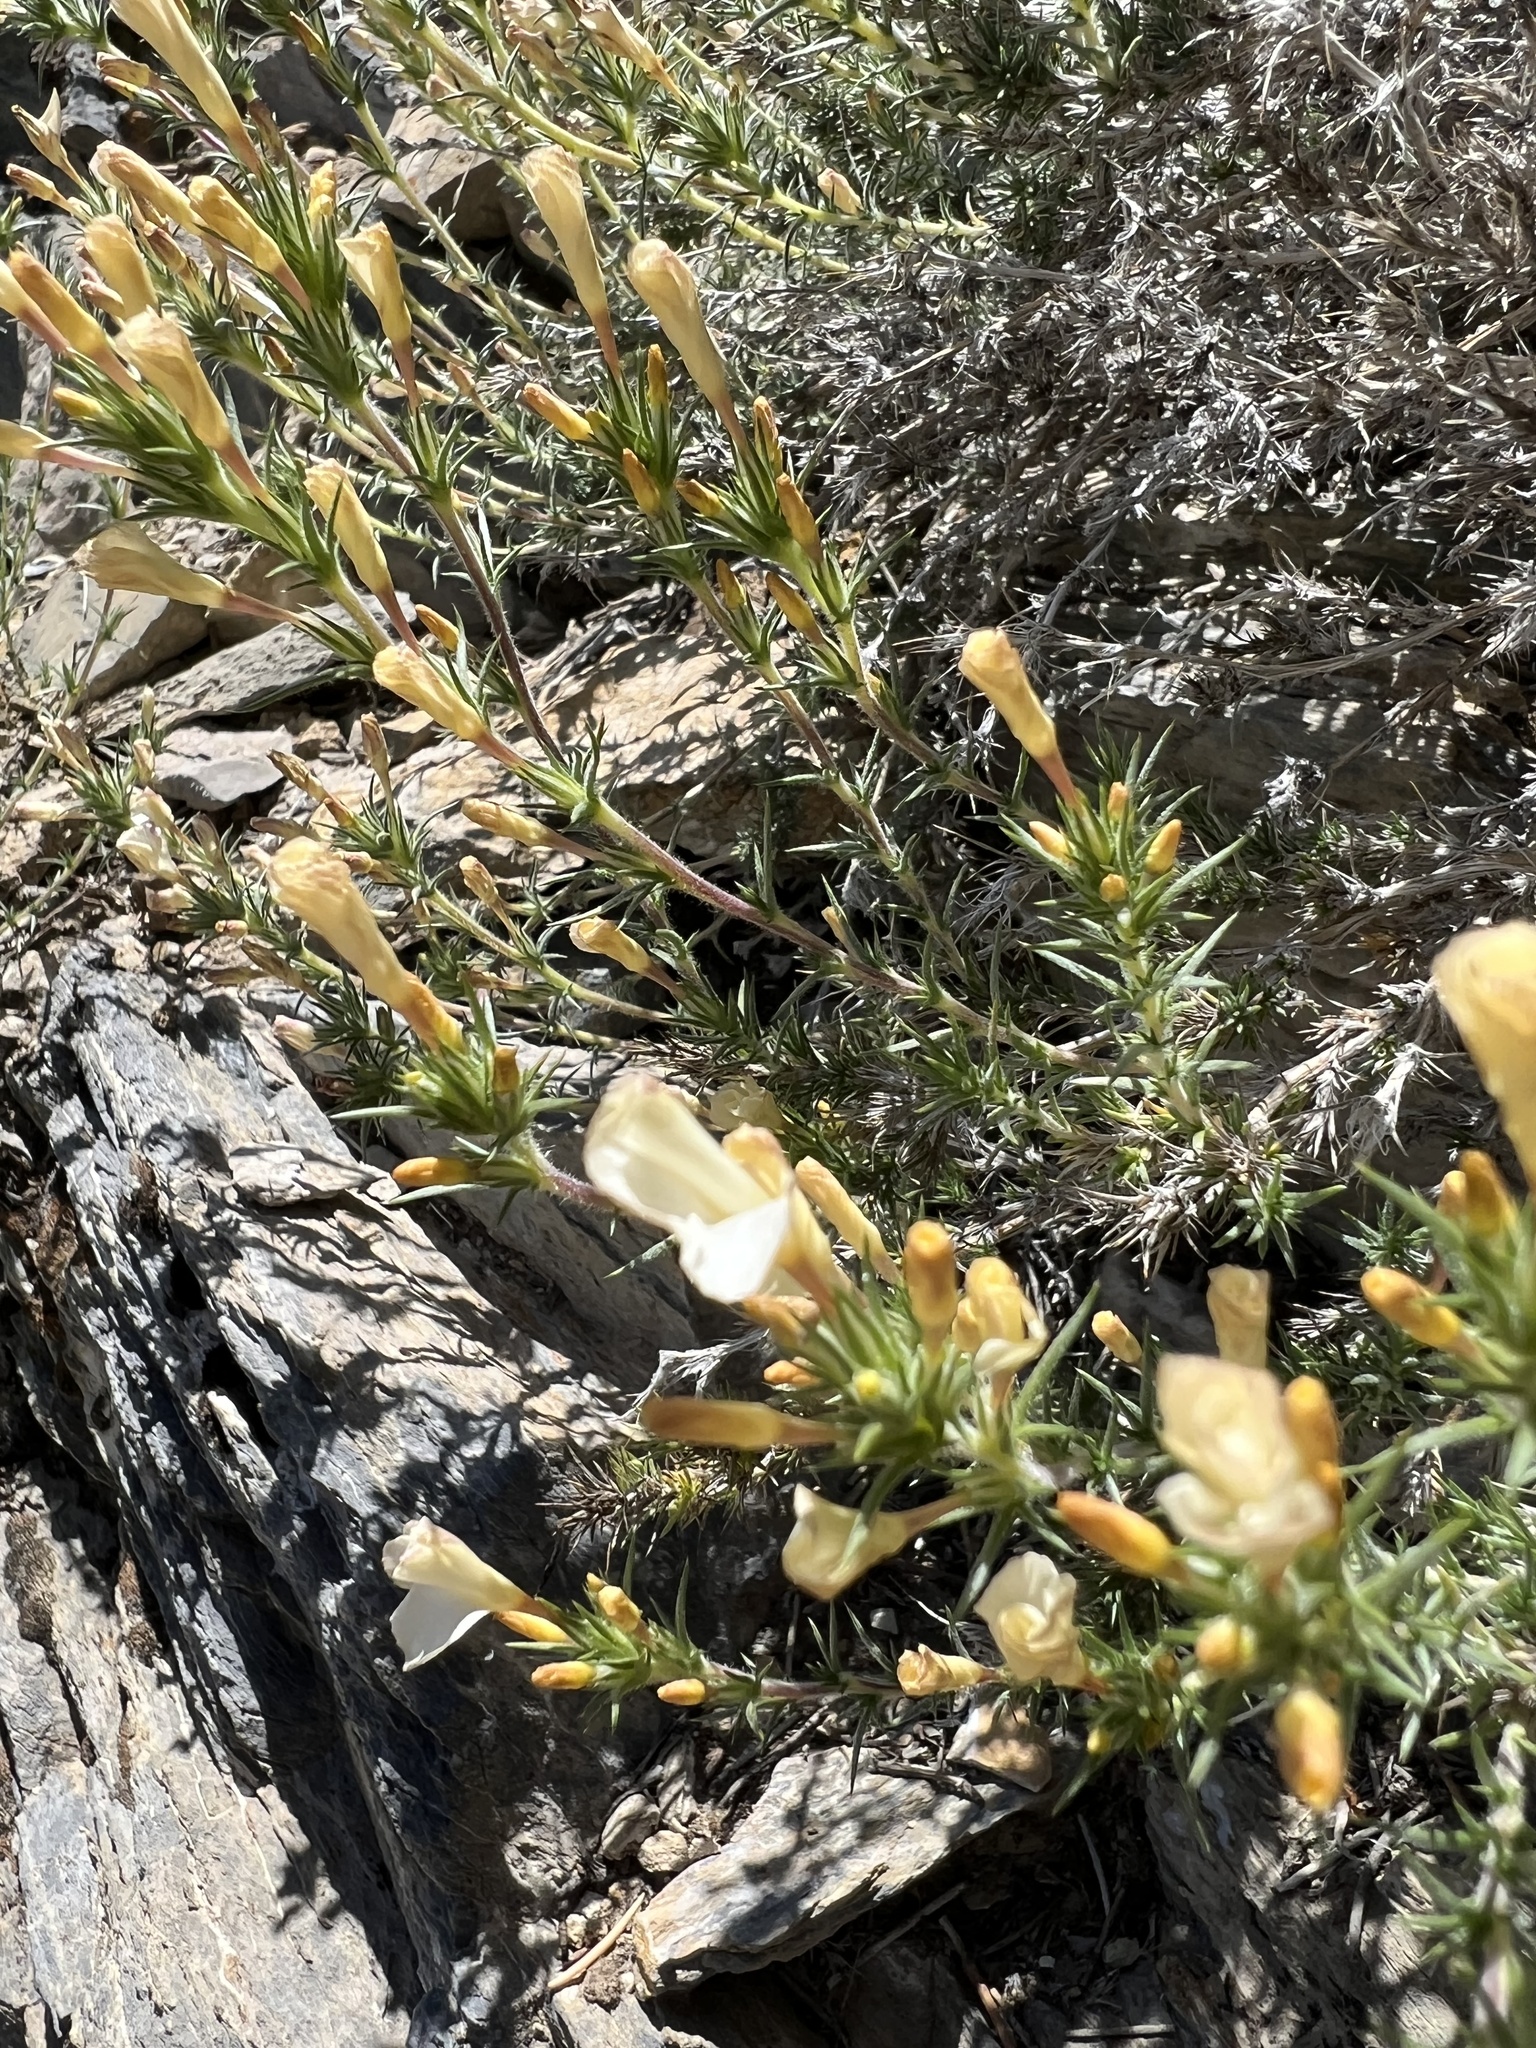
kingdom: Plantae
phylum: Tracheophyta
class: Magnoliopsida
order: Ericales
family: Polemoniaceae
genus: Linanthus
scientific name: Linanthus pungens
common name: Granite prickly phlox
